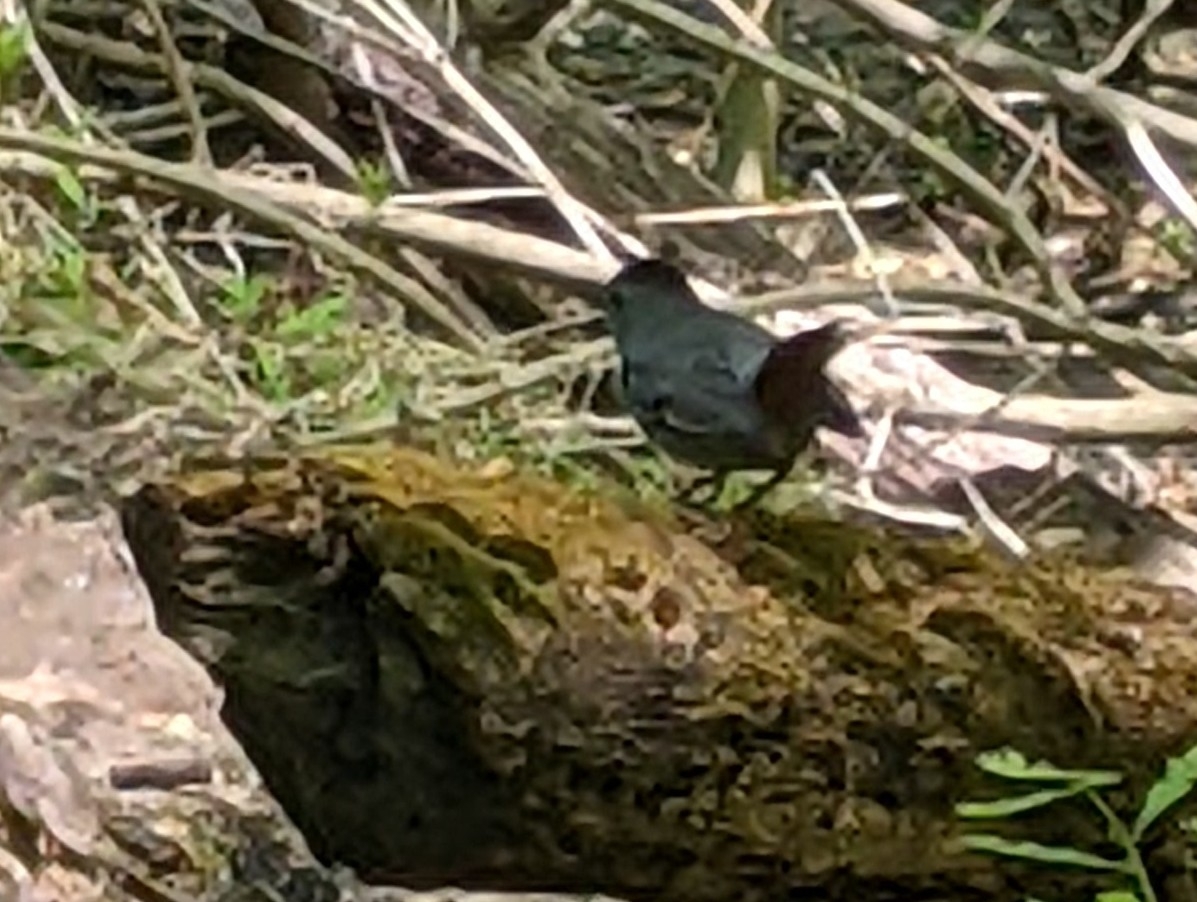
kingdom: Animalia
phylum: Chordata
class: Aves
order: Passeriformes
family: Mimidae
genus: Dumetella
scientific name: Dumetella carolinensis
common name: Gray catbird
